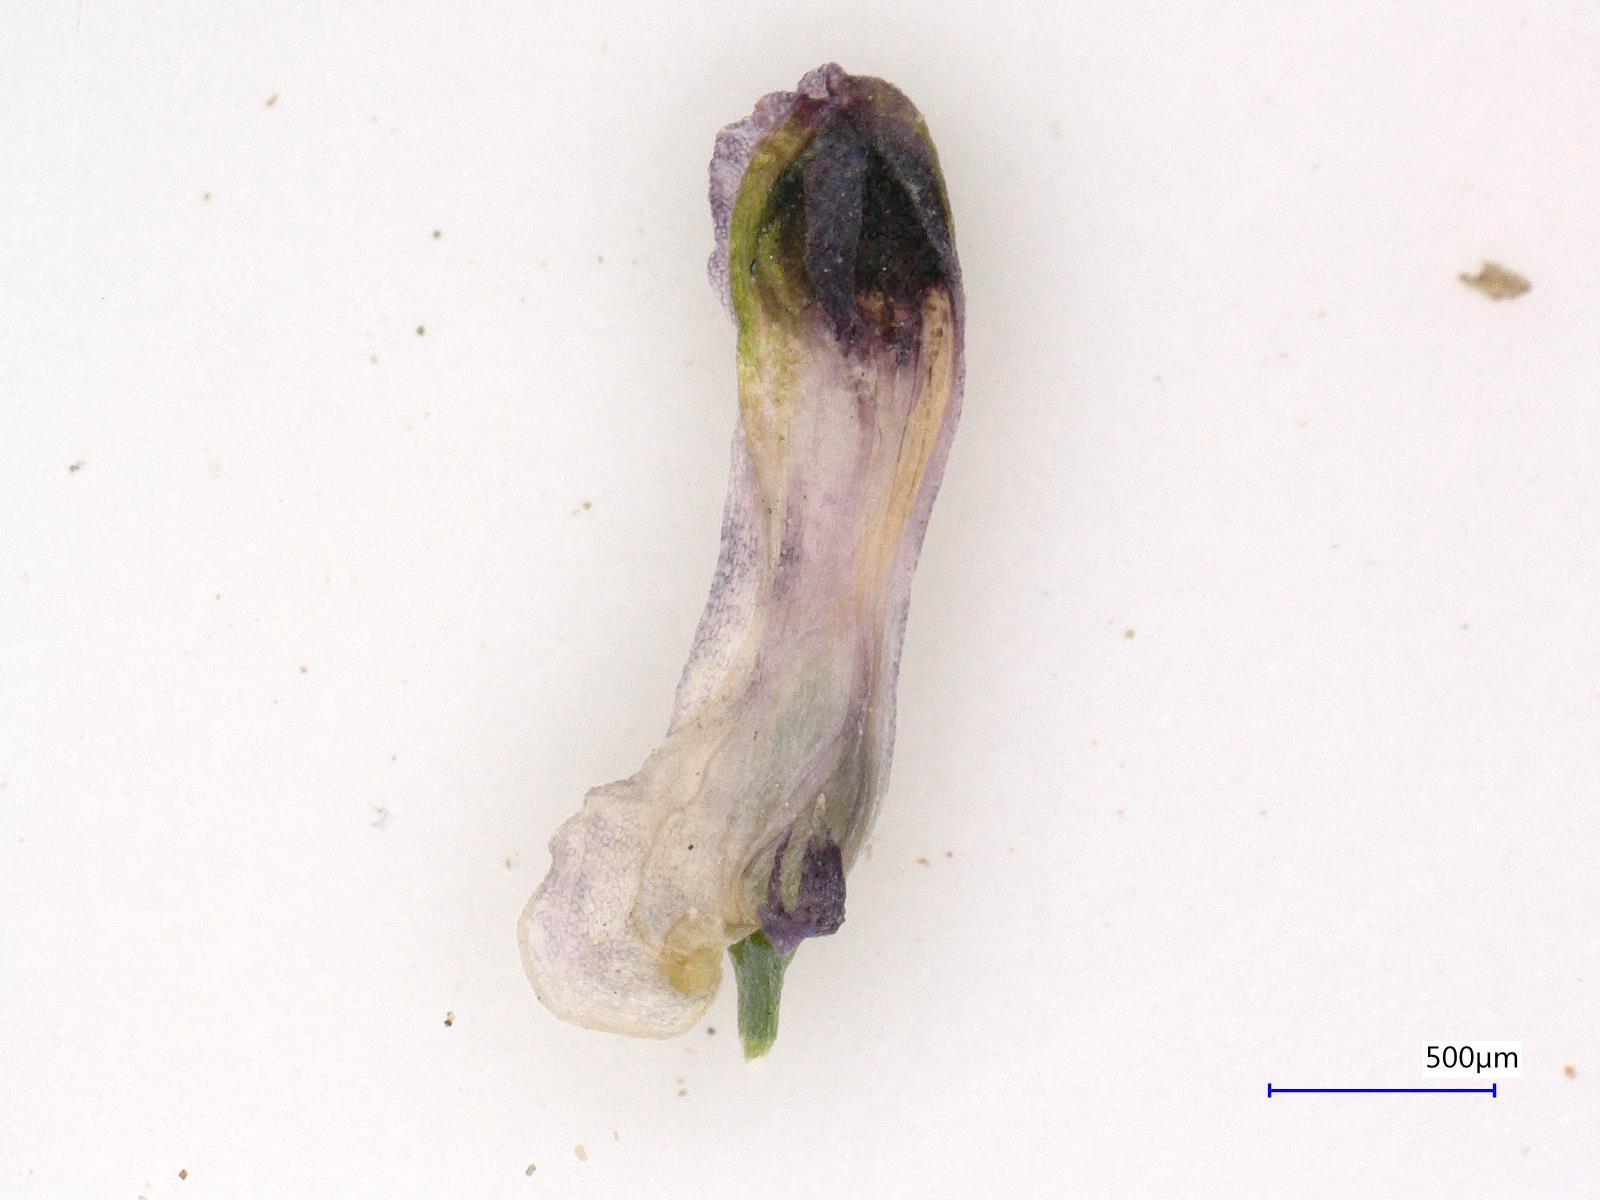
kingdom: Plantae
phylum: Tracheophyta
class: Magnoliopsida
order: Ranunculales
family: Papaveraceae
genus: Fumaria
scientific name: Fumaria parviflora
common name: Fine-leaved fumitory
